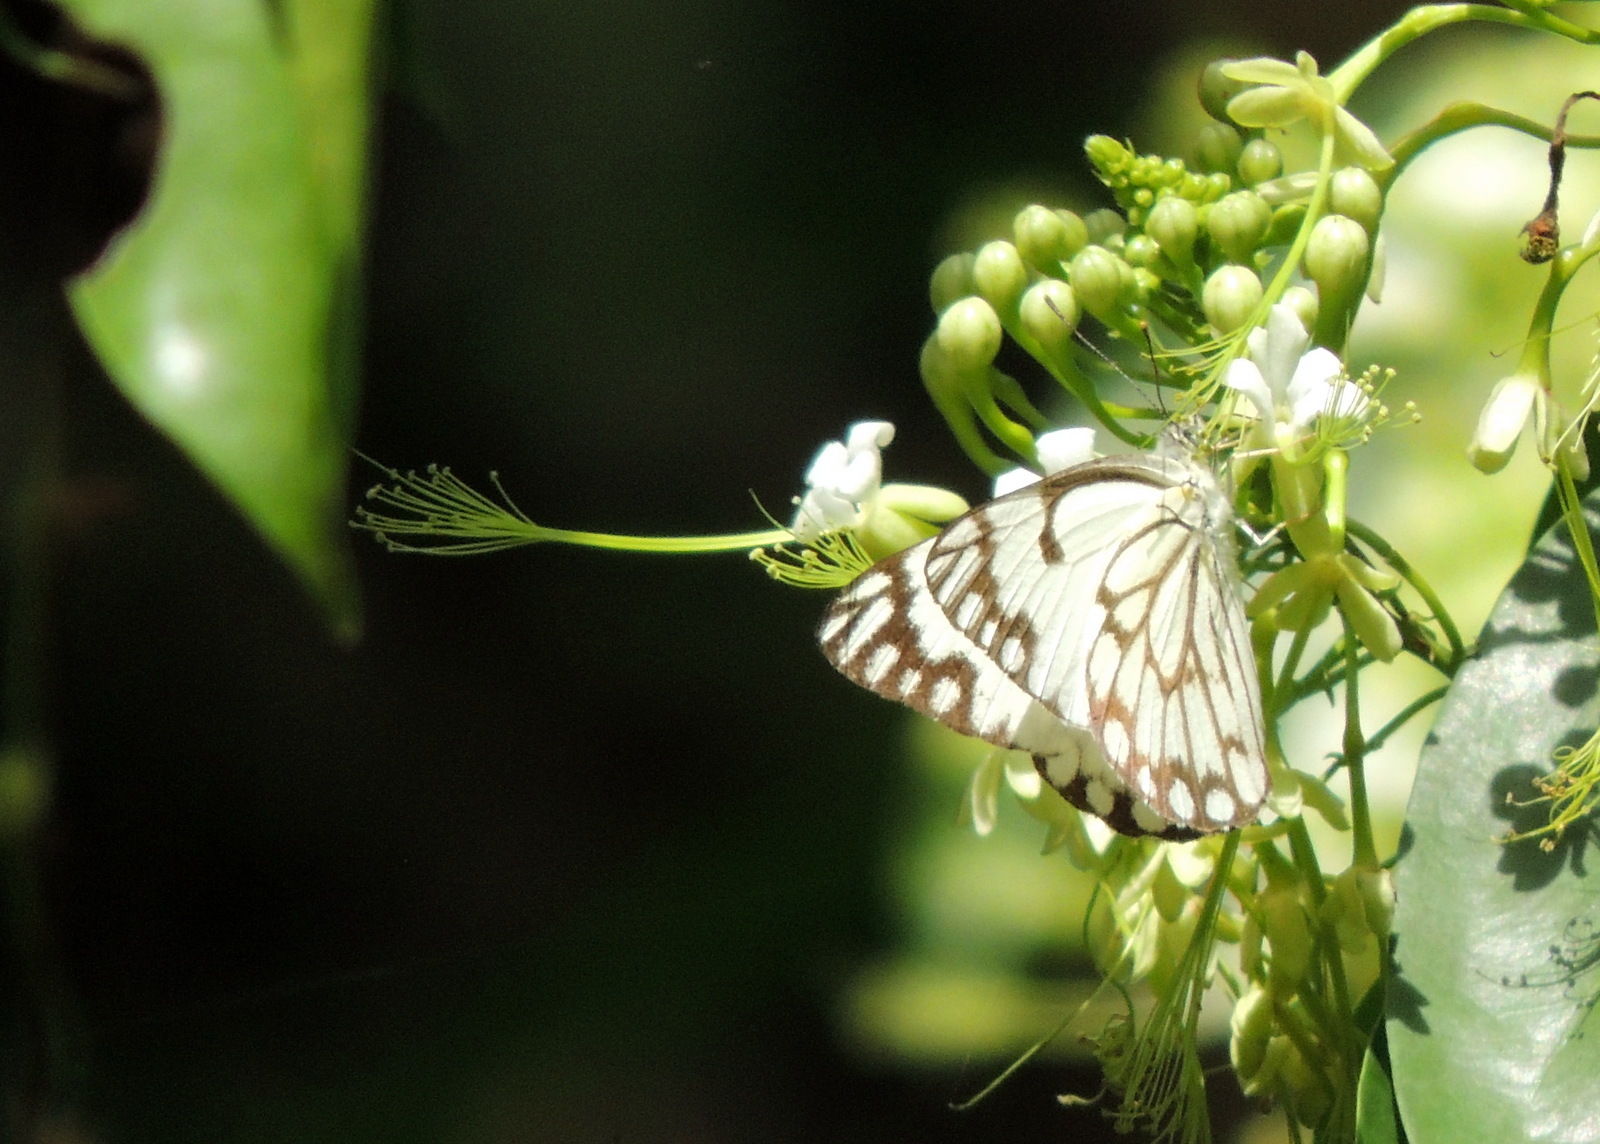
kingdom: Animalia
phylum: Arthropoda
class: Insecta
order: Lepidoptera
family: Pieridae
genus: Belenois
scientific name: Belenois aurota
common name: Brown-veined white
